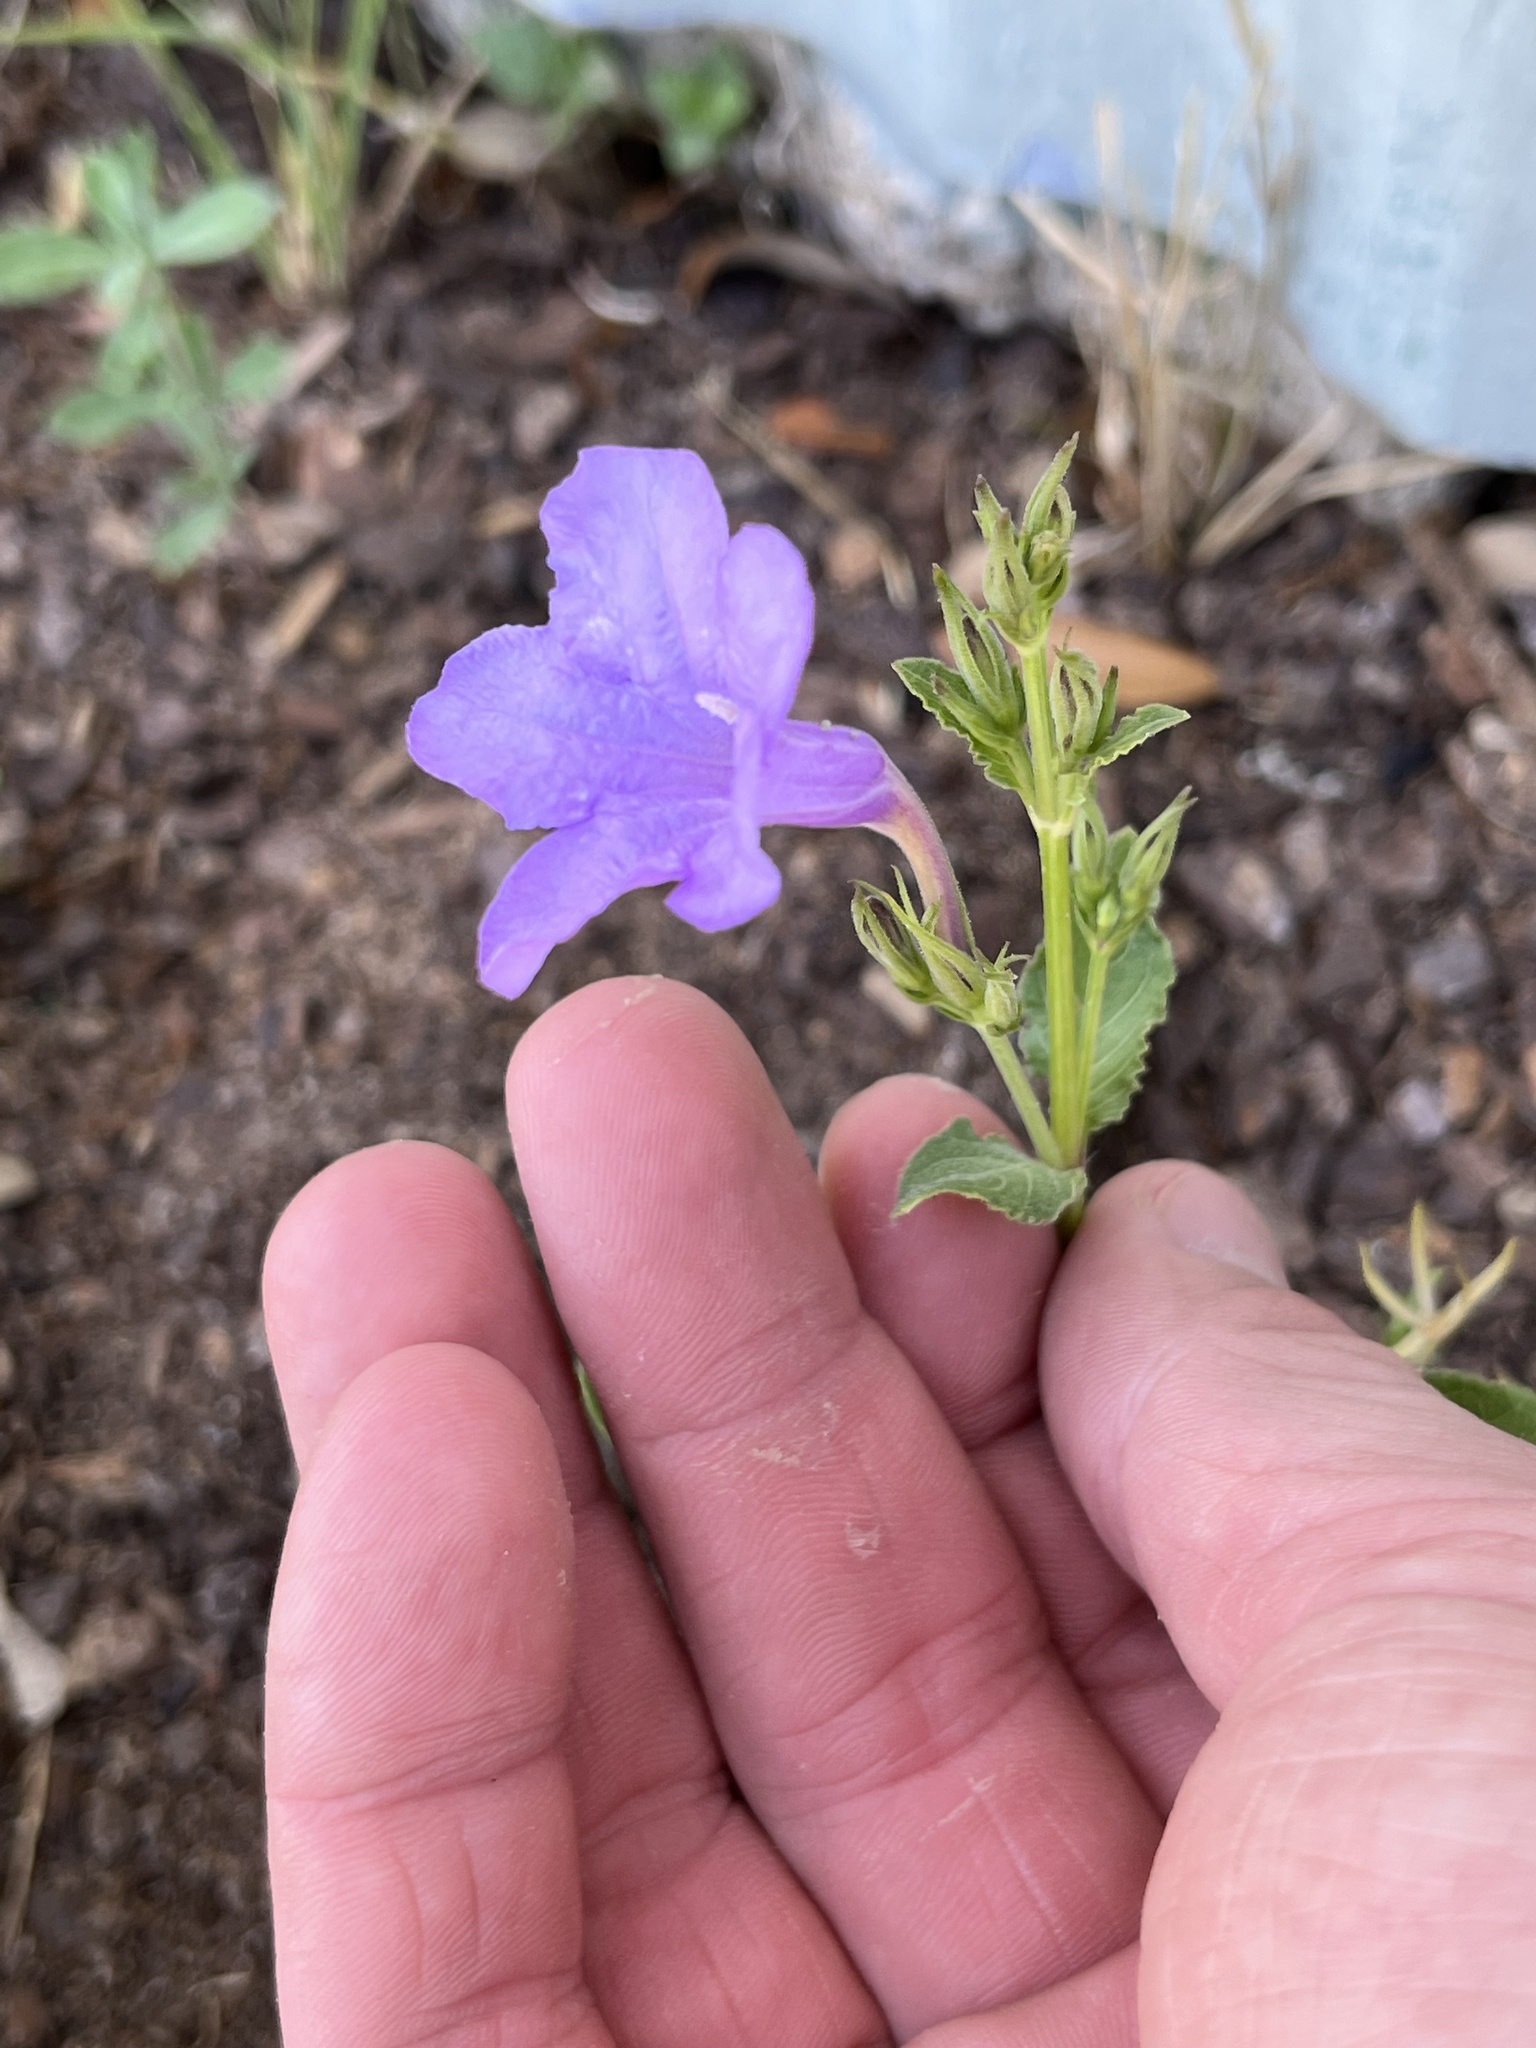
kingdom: Plantae
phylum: Tracheophyta
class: Magnoliopsida
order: Lamiales
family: Acanthaceae
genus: Ruellia
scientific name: Ruellia ciliatiflora
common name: Hairyflower wild petunia
